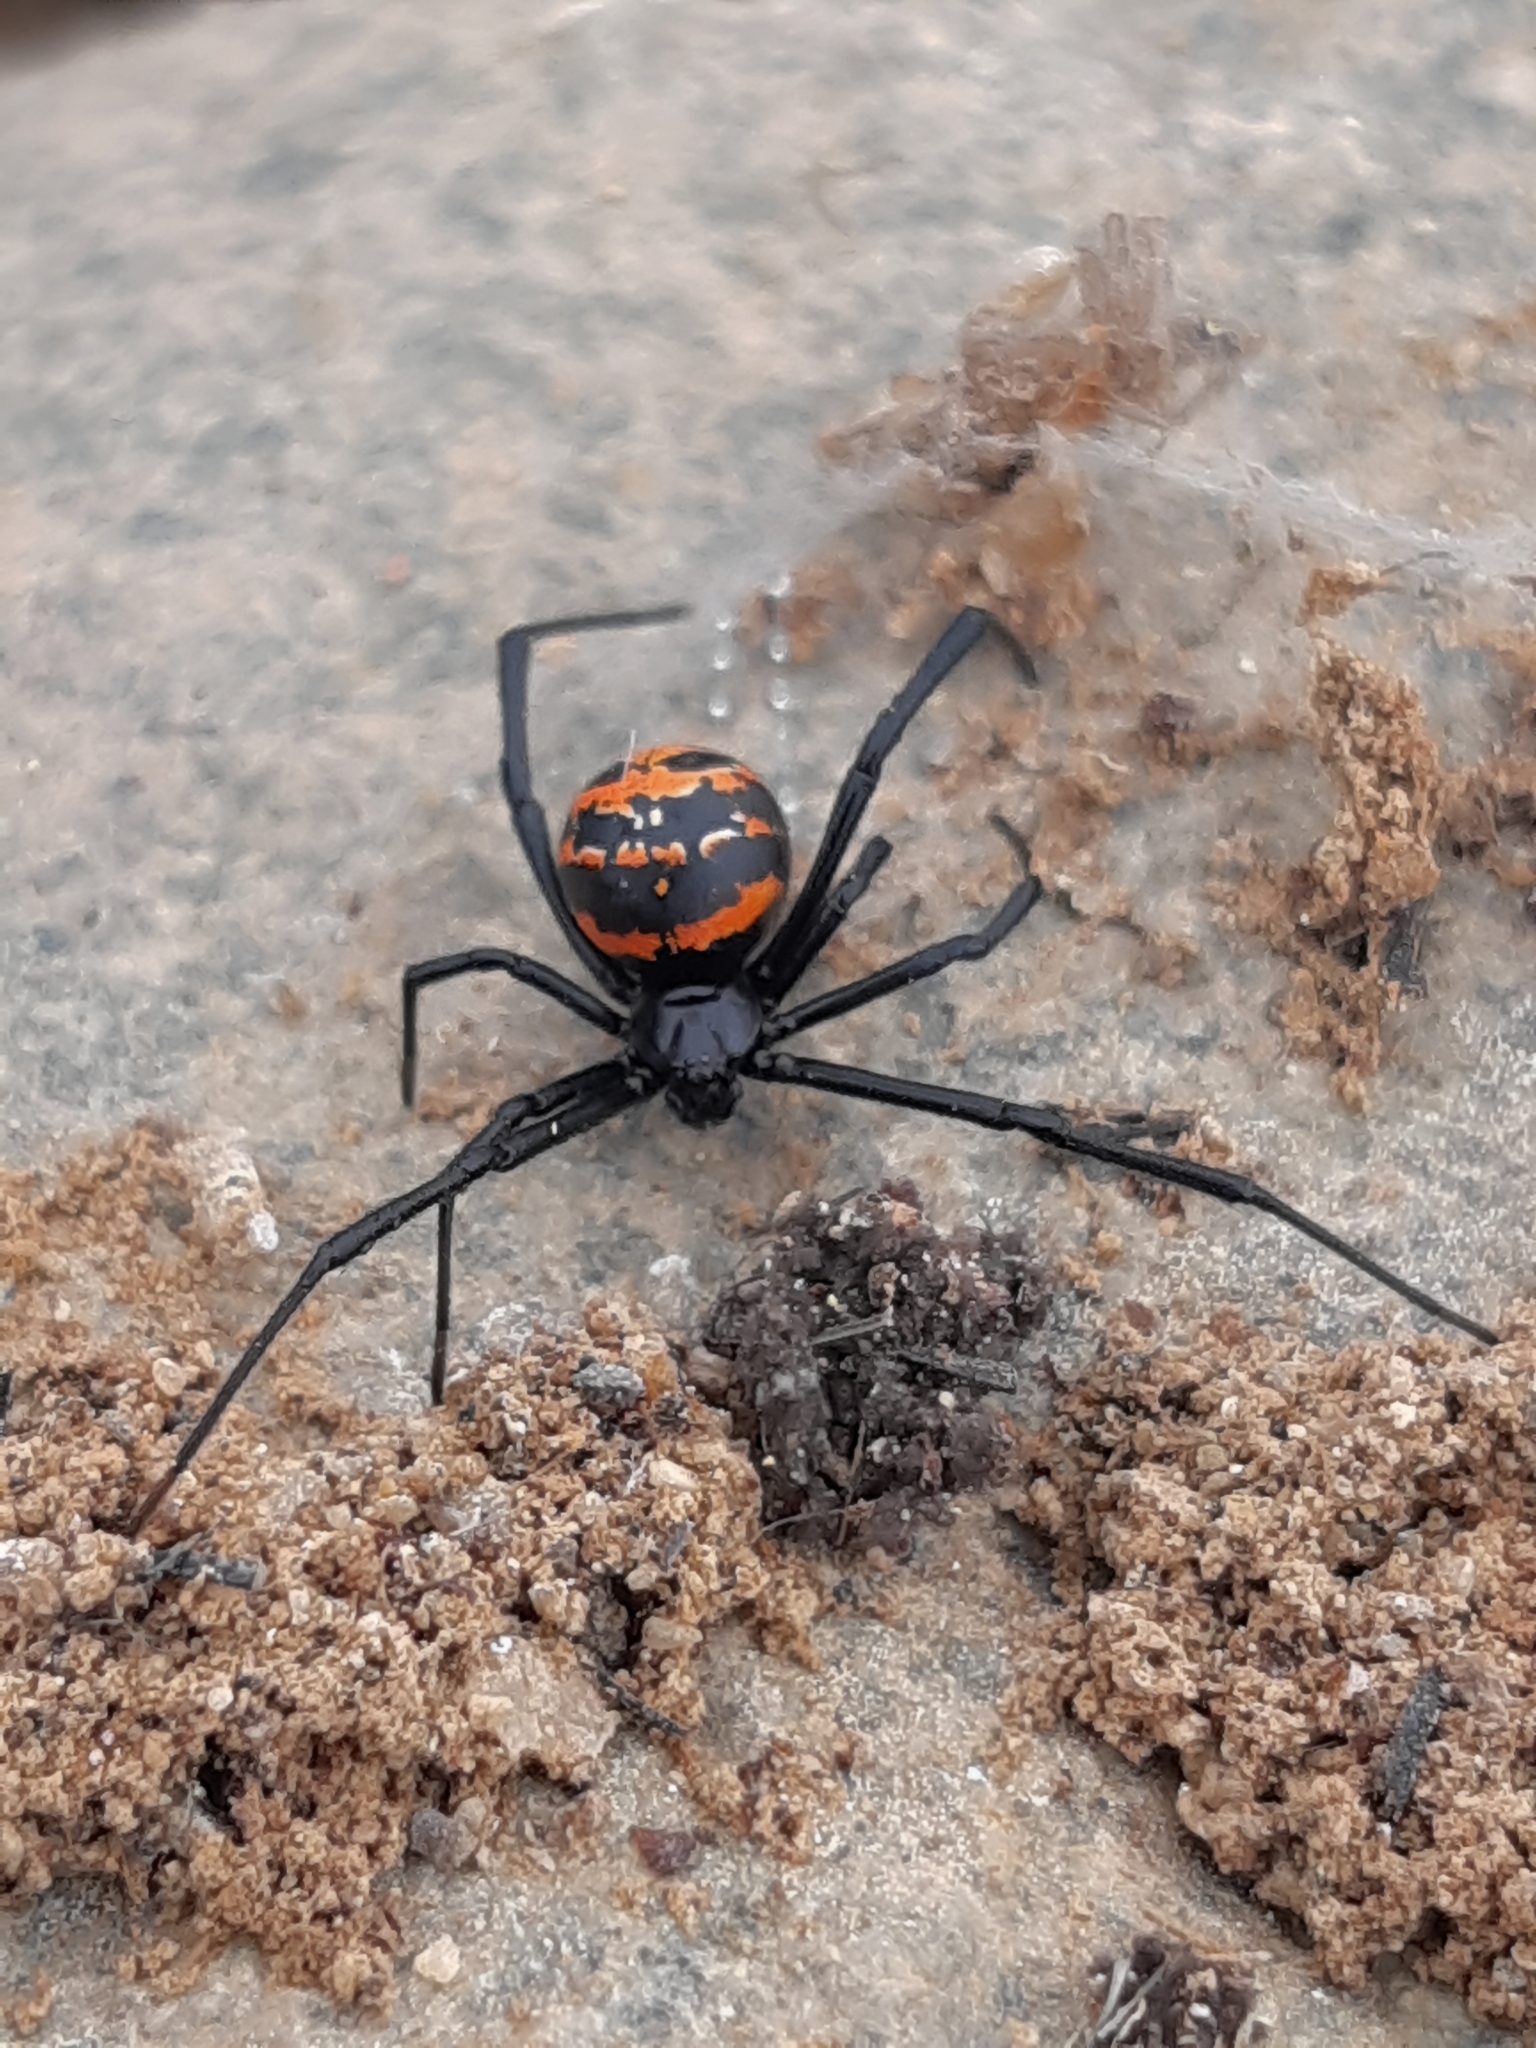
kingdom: Animalia
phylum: Arthropoda
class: Arachnida
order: Araneae
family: Theridiidae
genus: Latrodectus
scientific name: Latrodectus thoracicus
